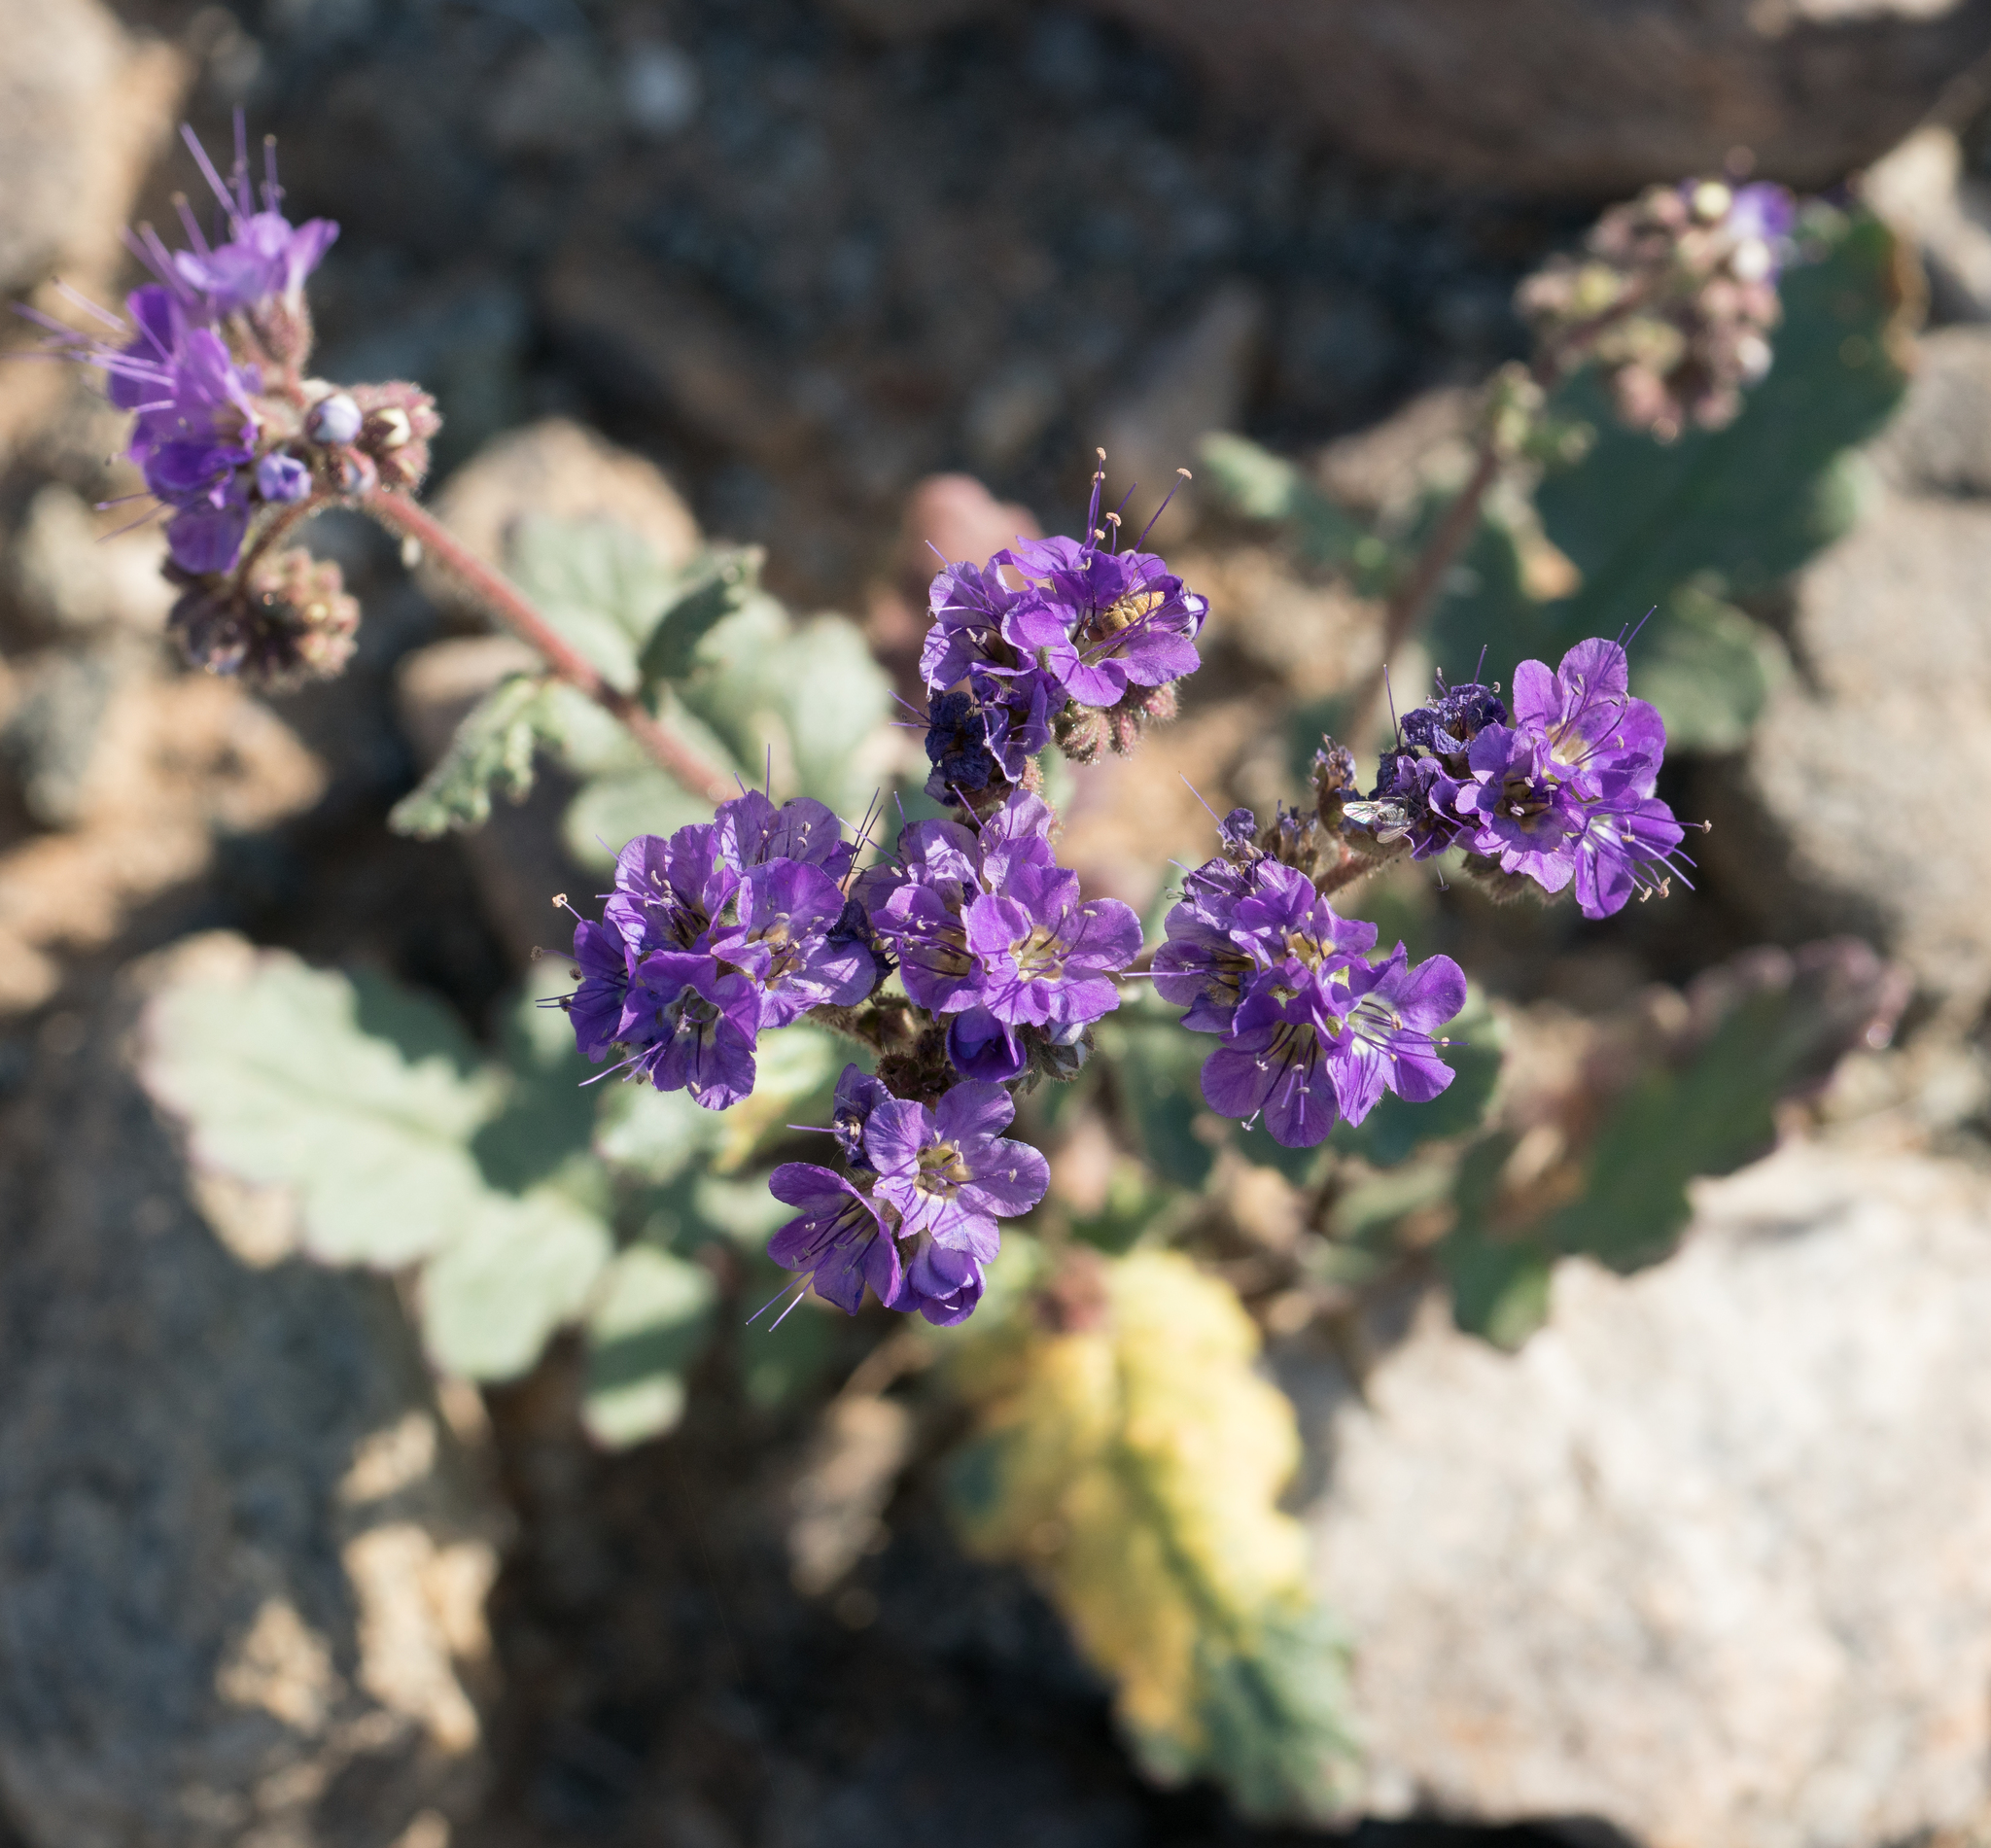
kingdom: Plantae
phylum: Tracheophyta
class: Magnoliopsida
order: Boraginales
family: Hydrophyllaceae
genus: Phacelia
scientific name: Phacelia crenulata
